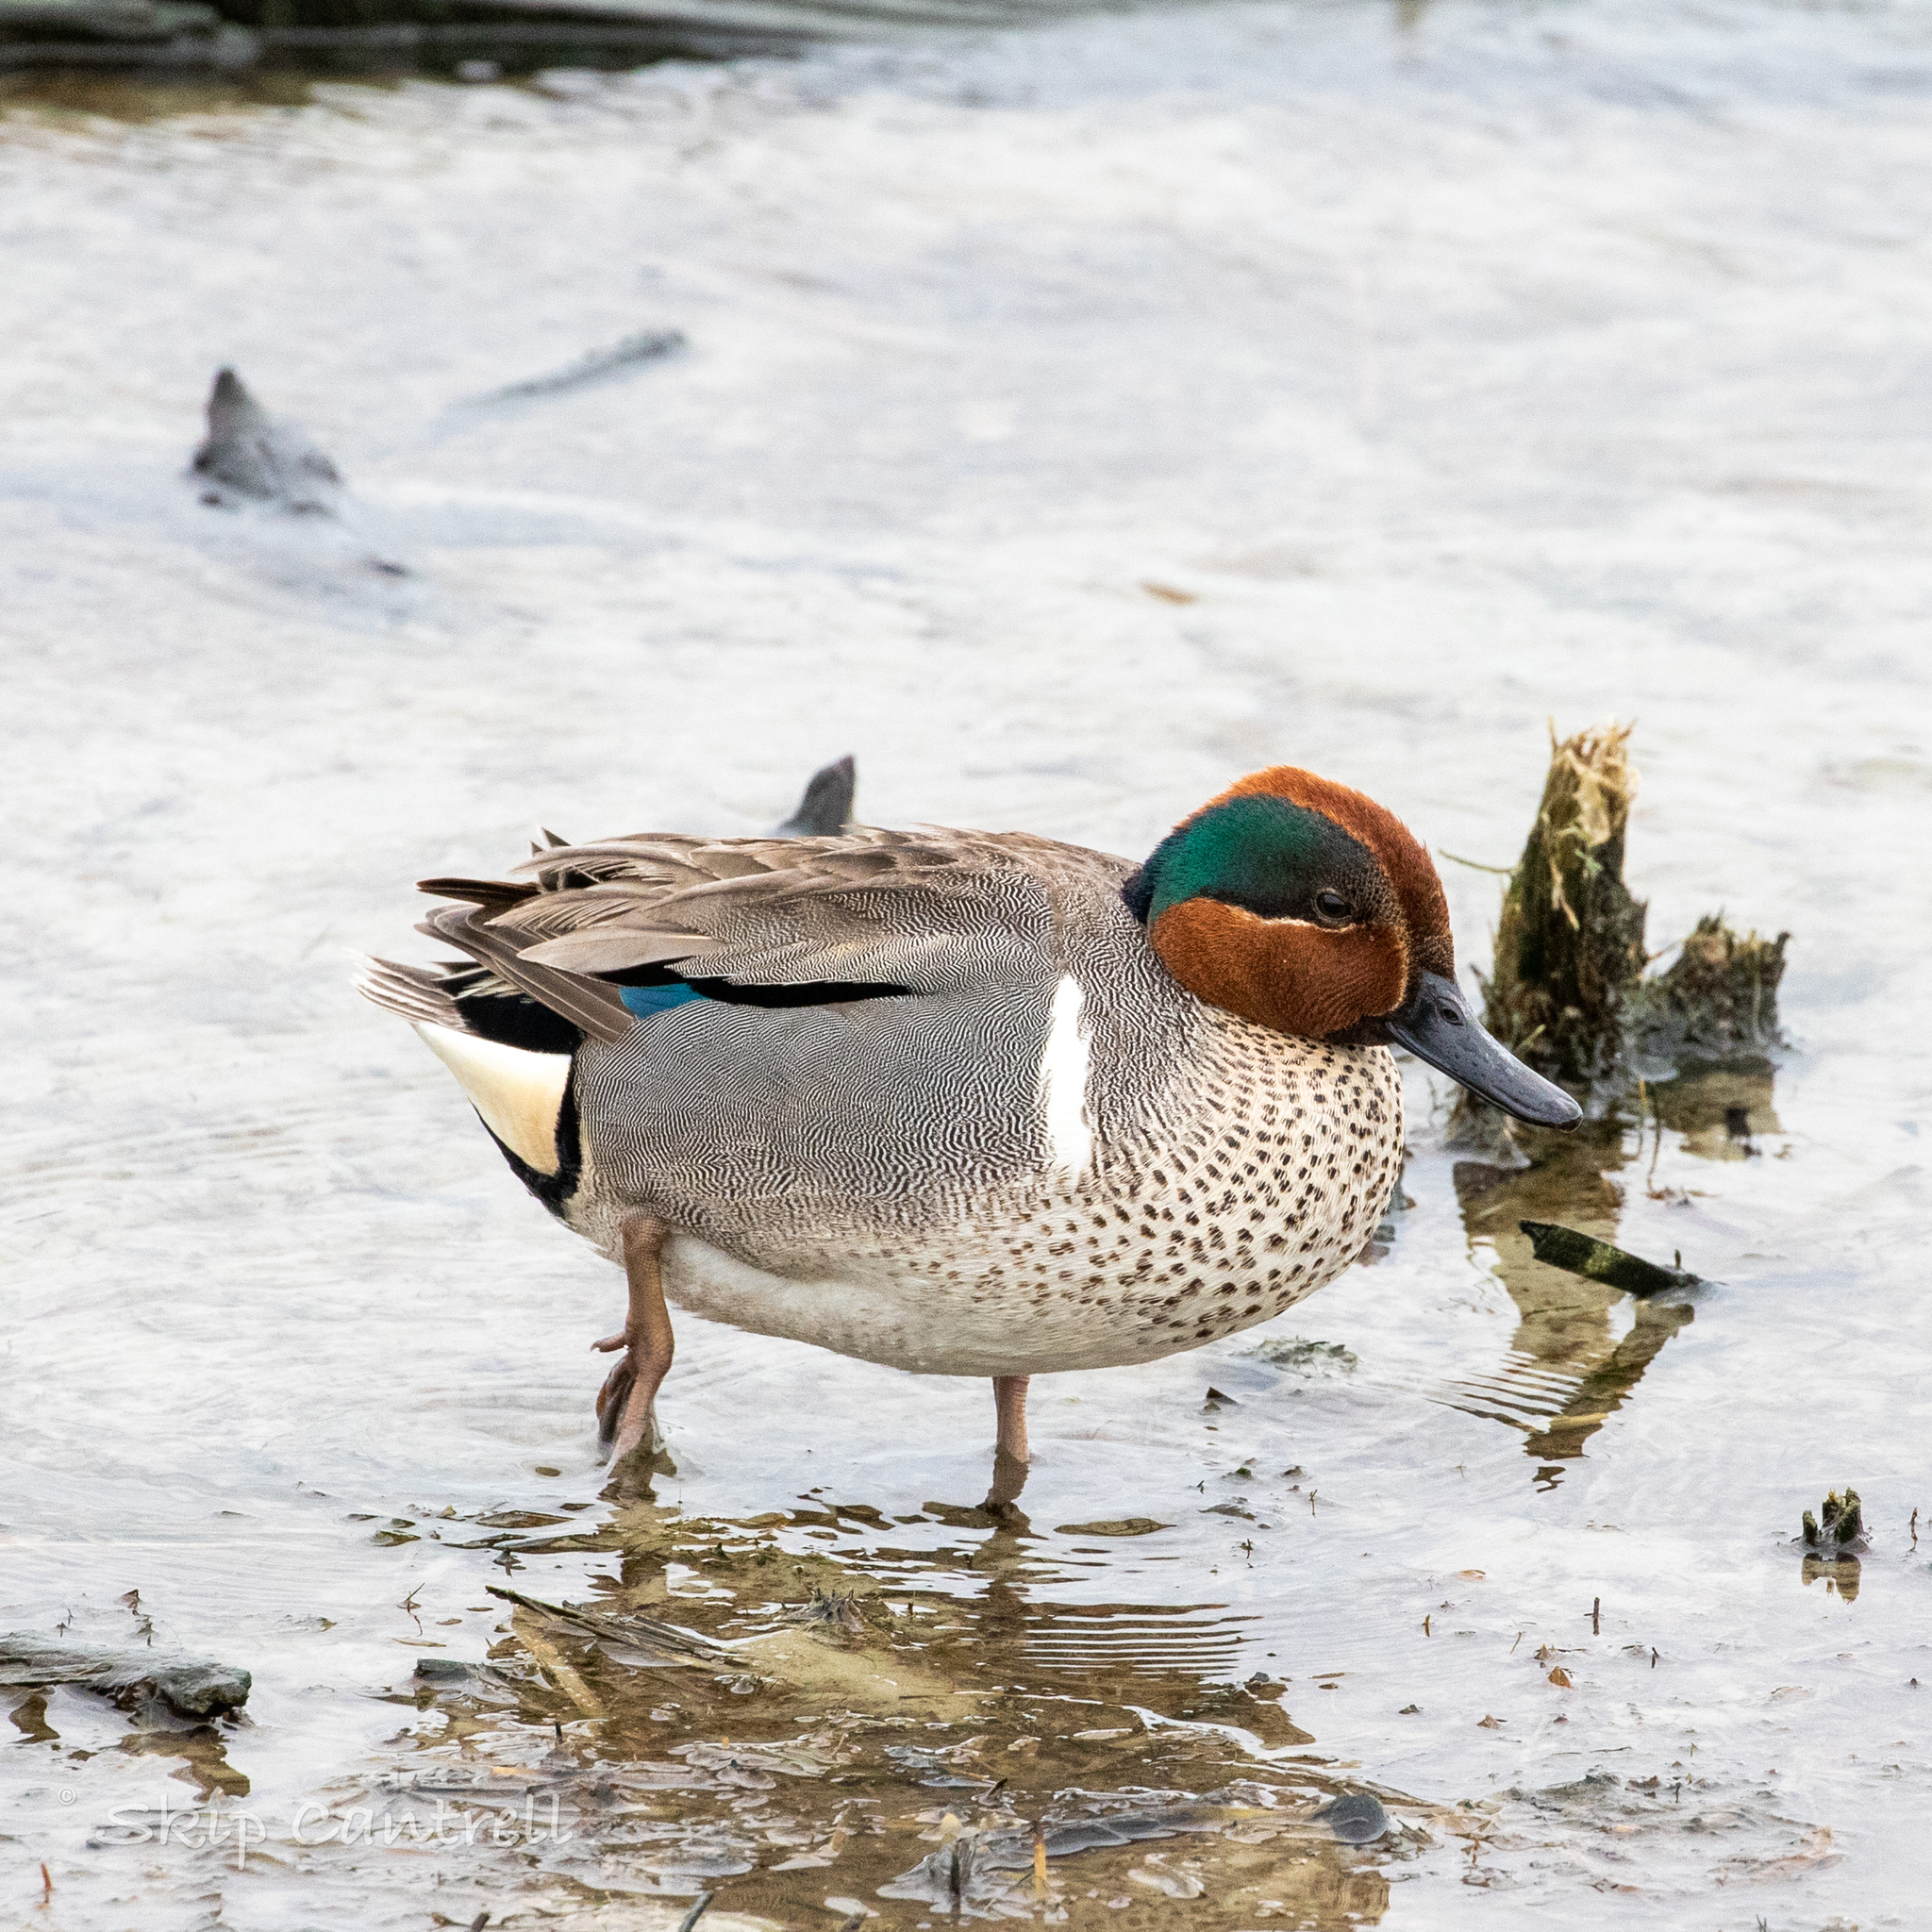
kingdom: Animalia
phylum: Chordata
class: Aves
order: Anseriformes
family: Anatidae
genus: Anas
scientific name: Anas crecca
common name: Eurasian teal
